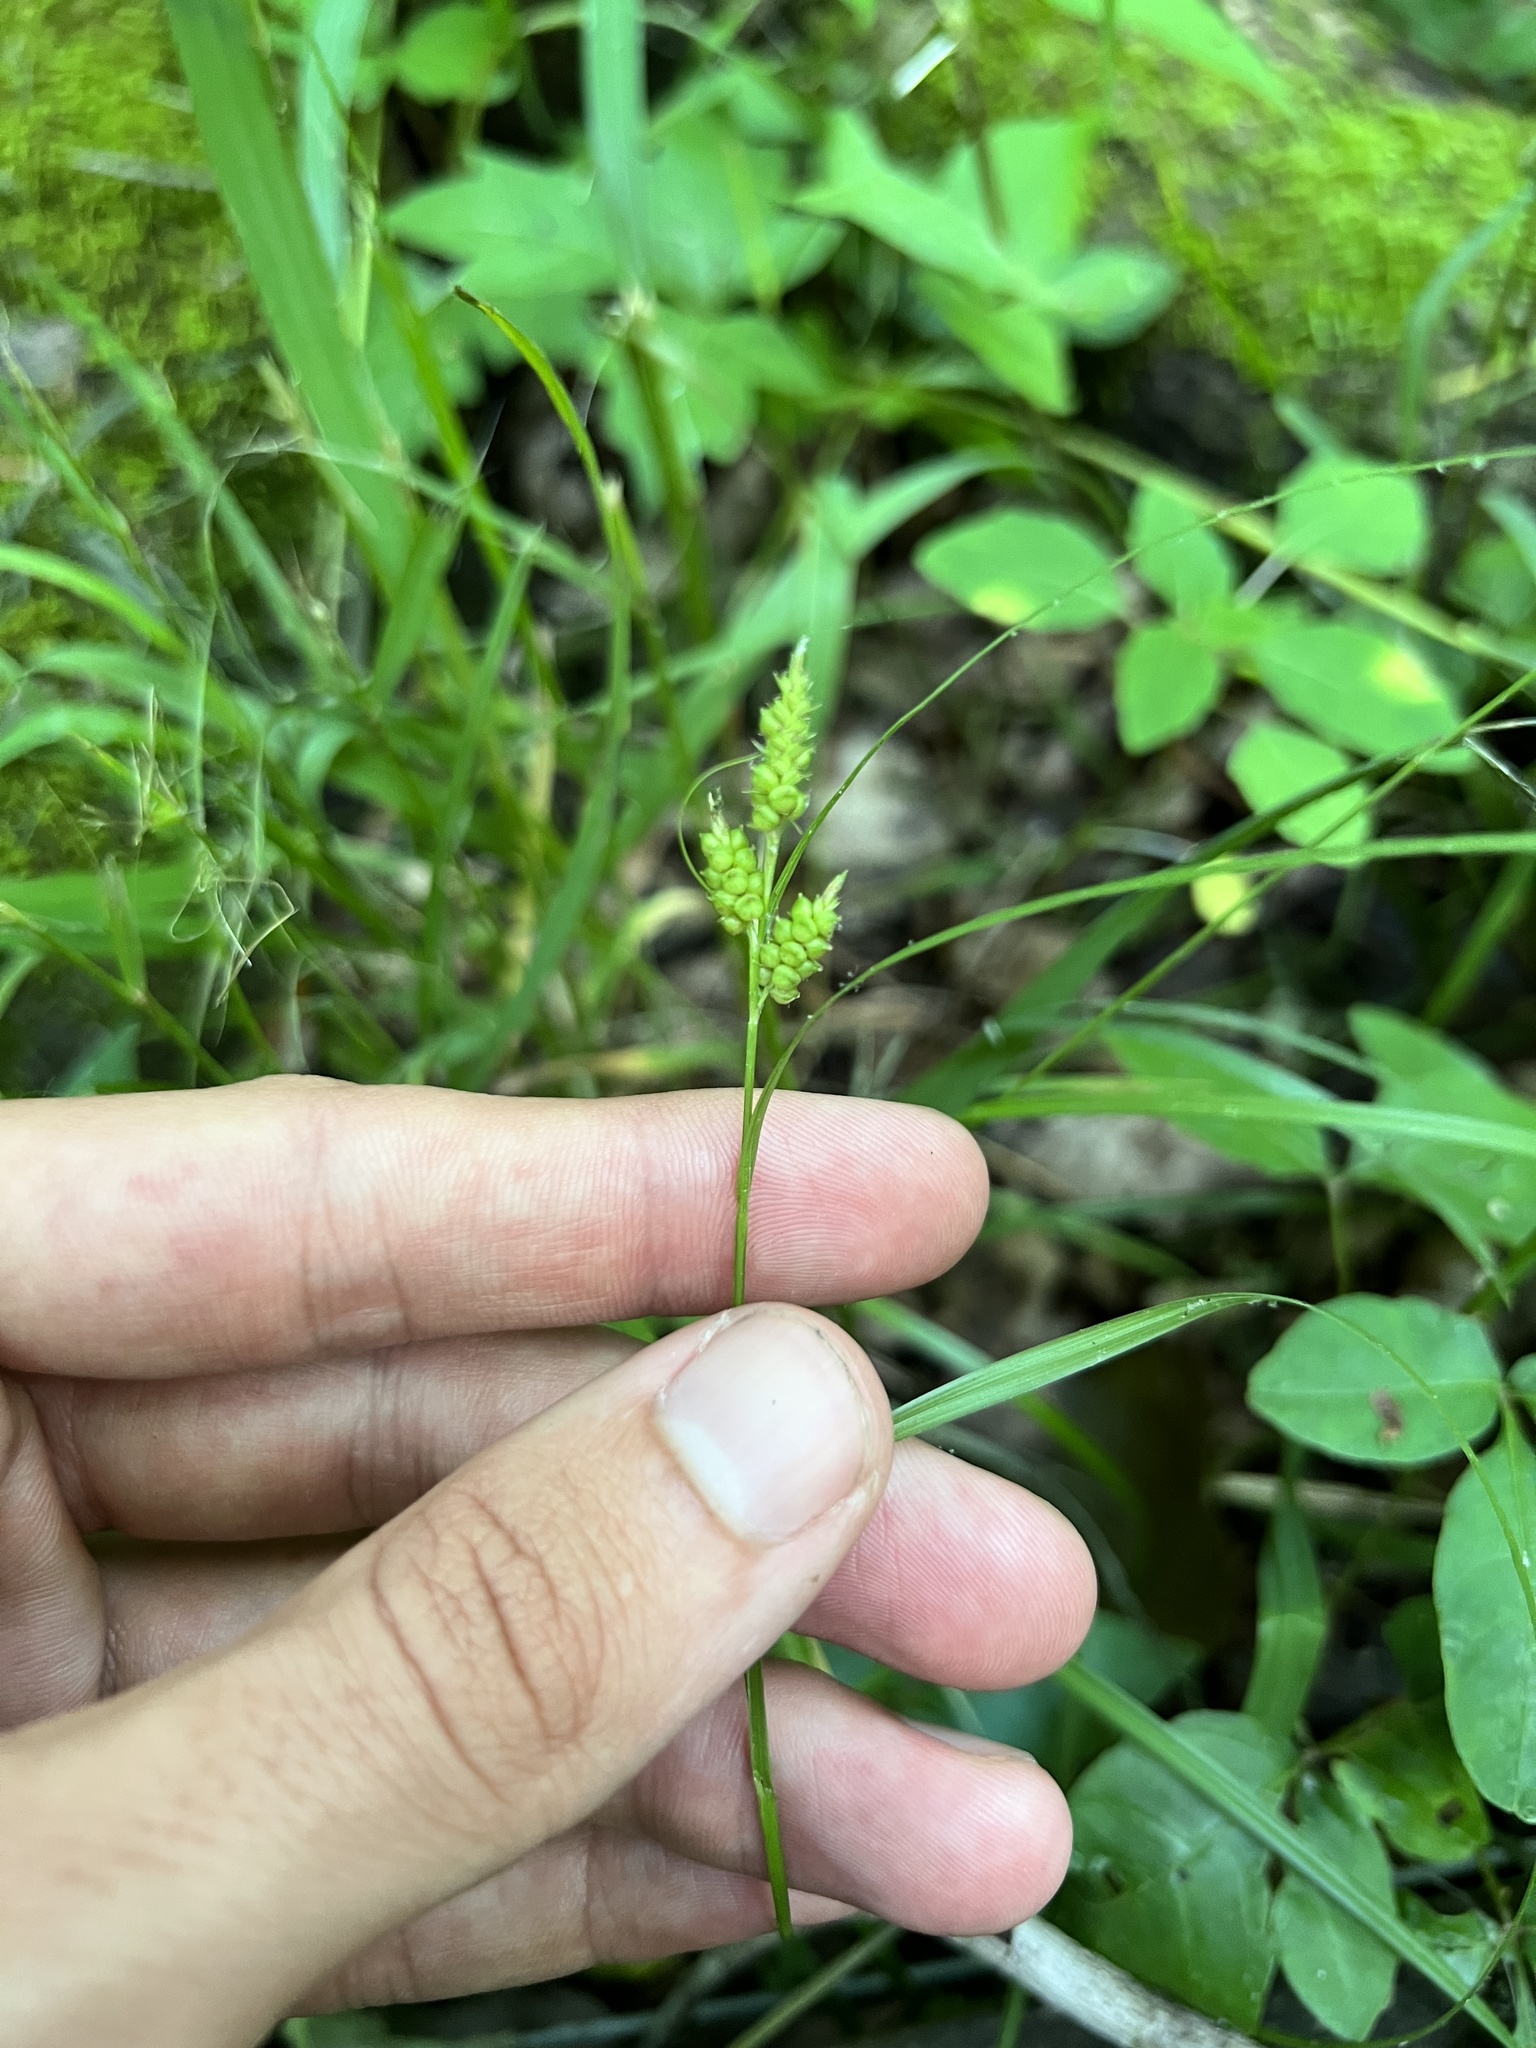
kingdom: Plantae
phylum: Tracheophyta
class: Liliopsida
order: Poales
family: Cyperaceae
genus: Carex
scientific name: Carex caroliniana
